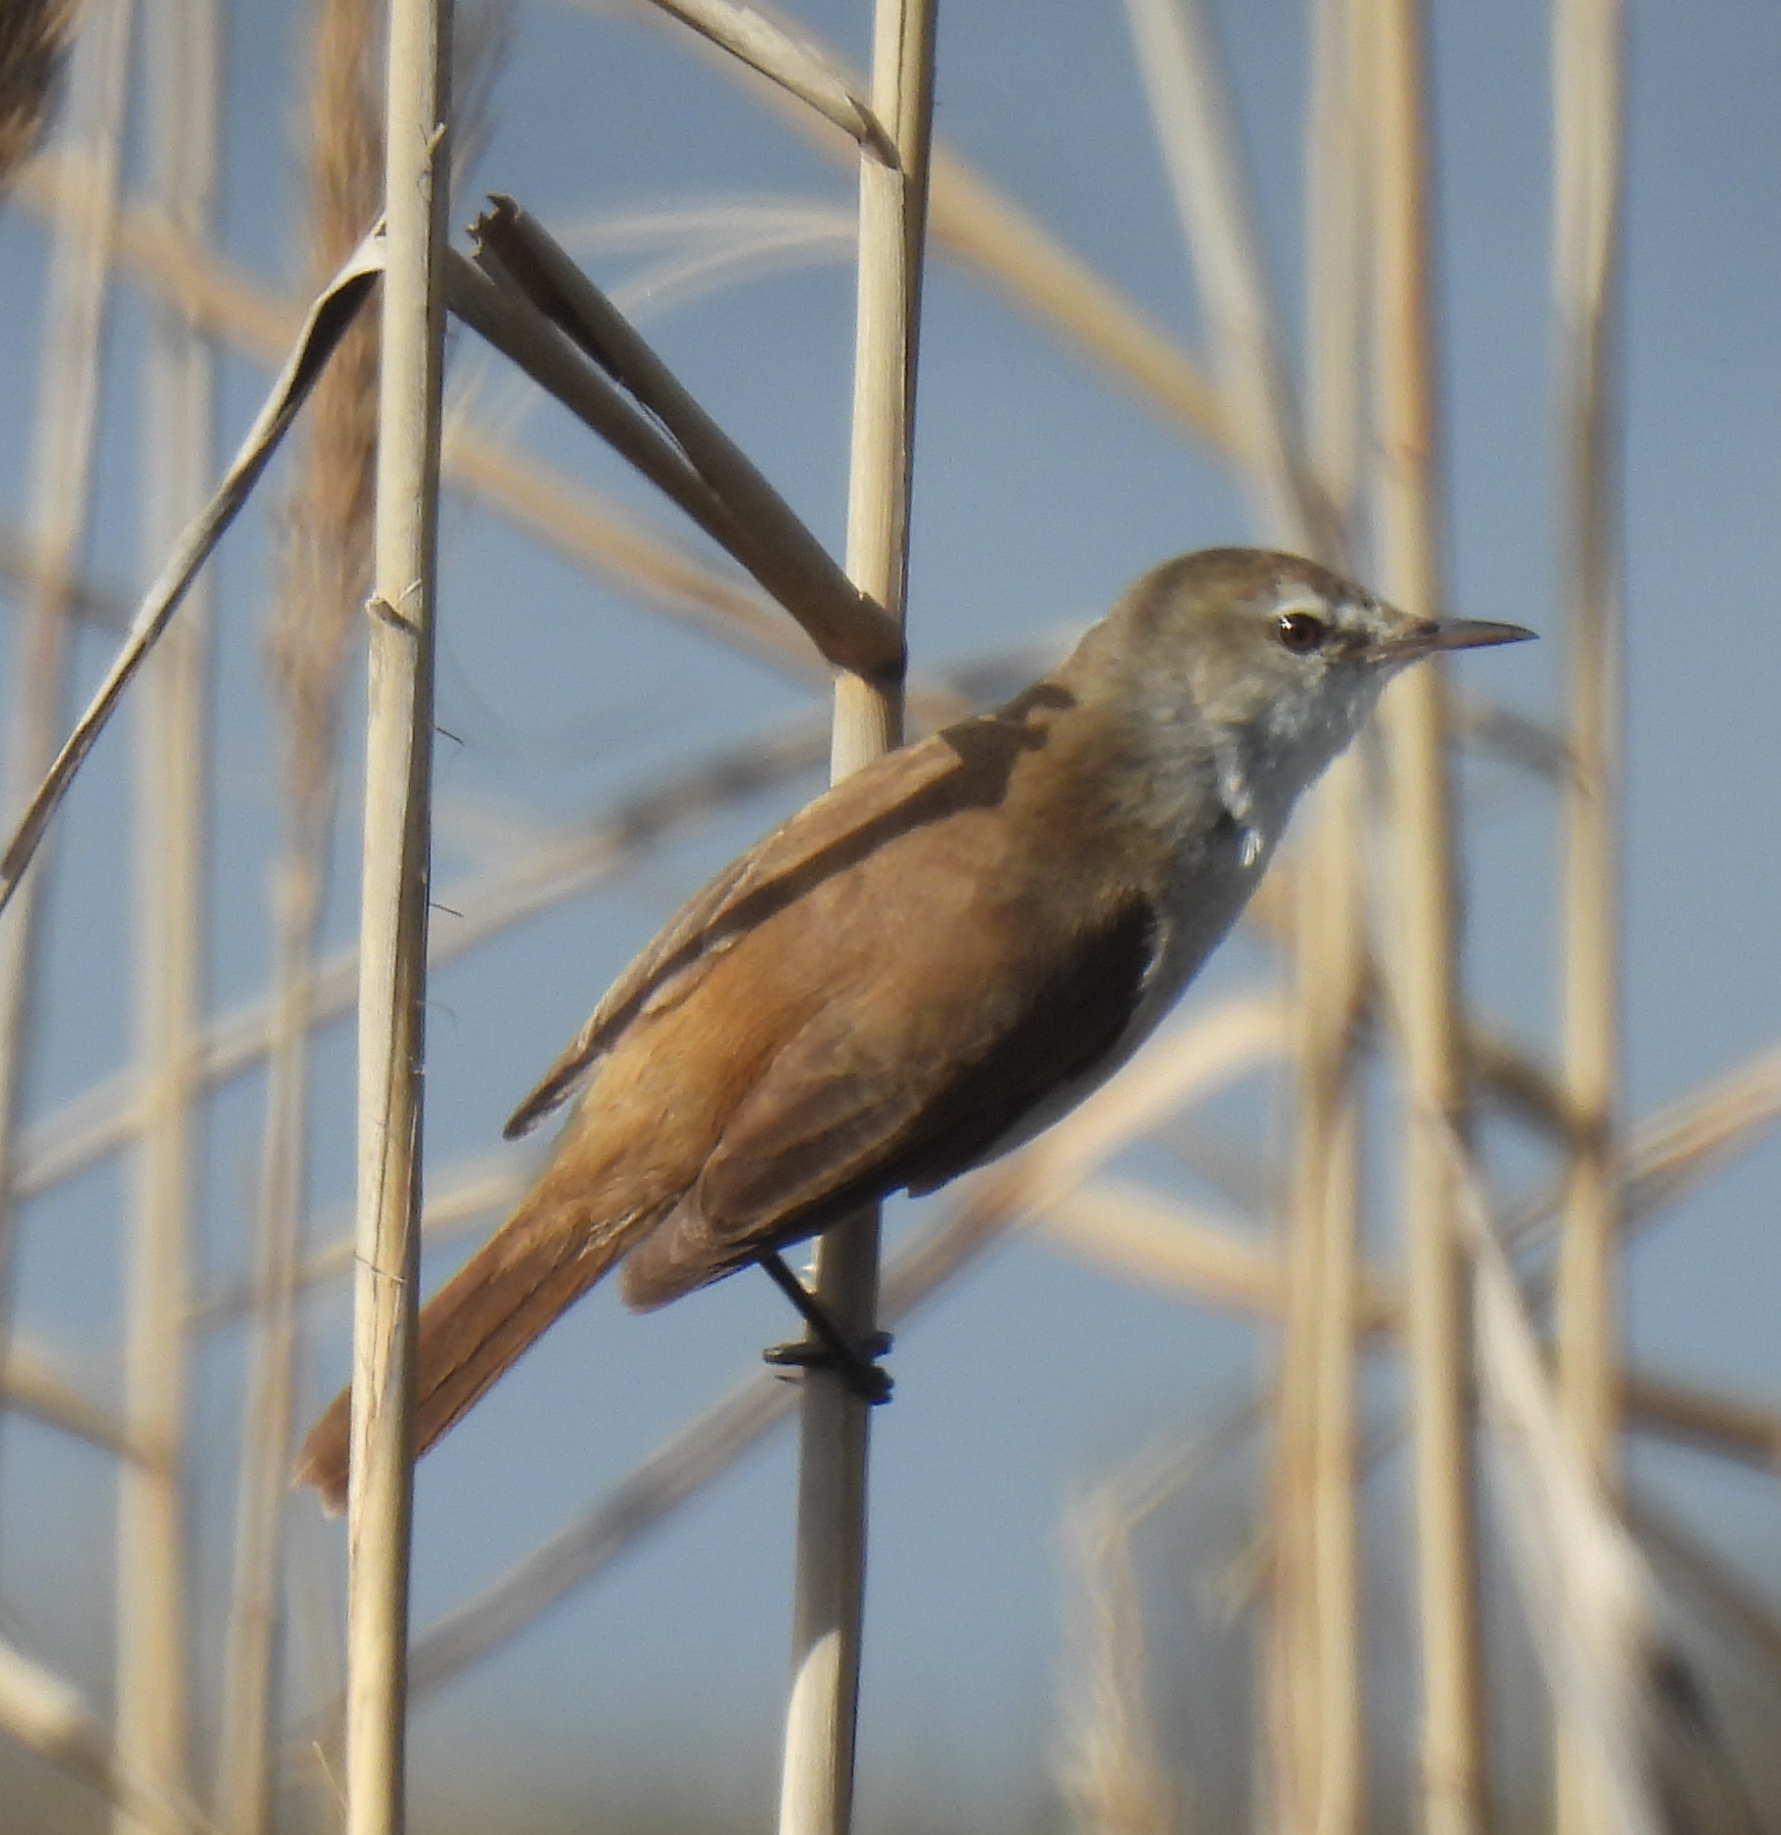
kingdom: Animalia
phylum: Chordata
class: Aves
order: Passeriformes
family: Acrocephalidae
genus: Acrocephalus
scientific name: Acrocephalus gracilirostris
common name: Lesser swamp warbler
